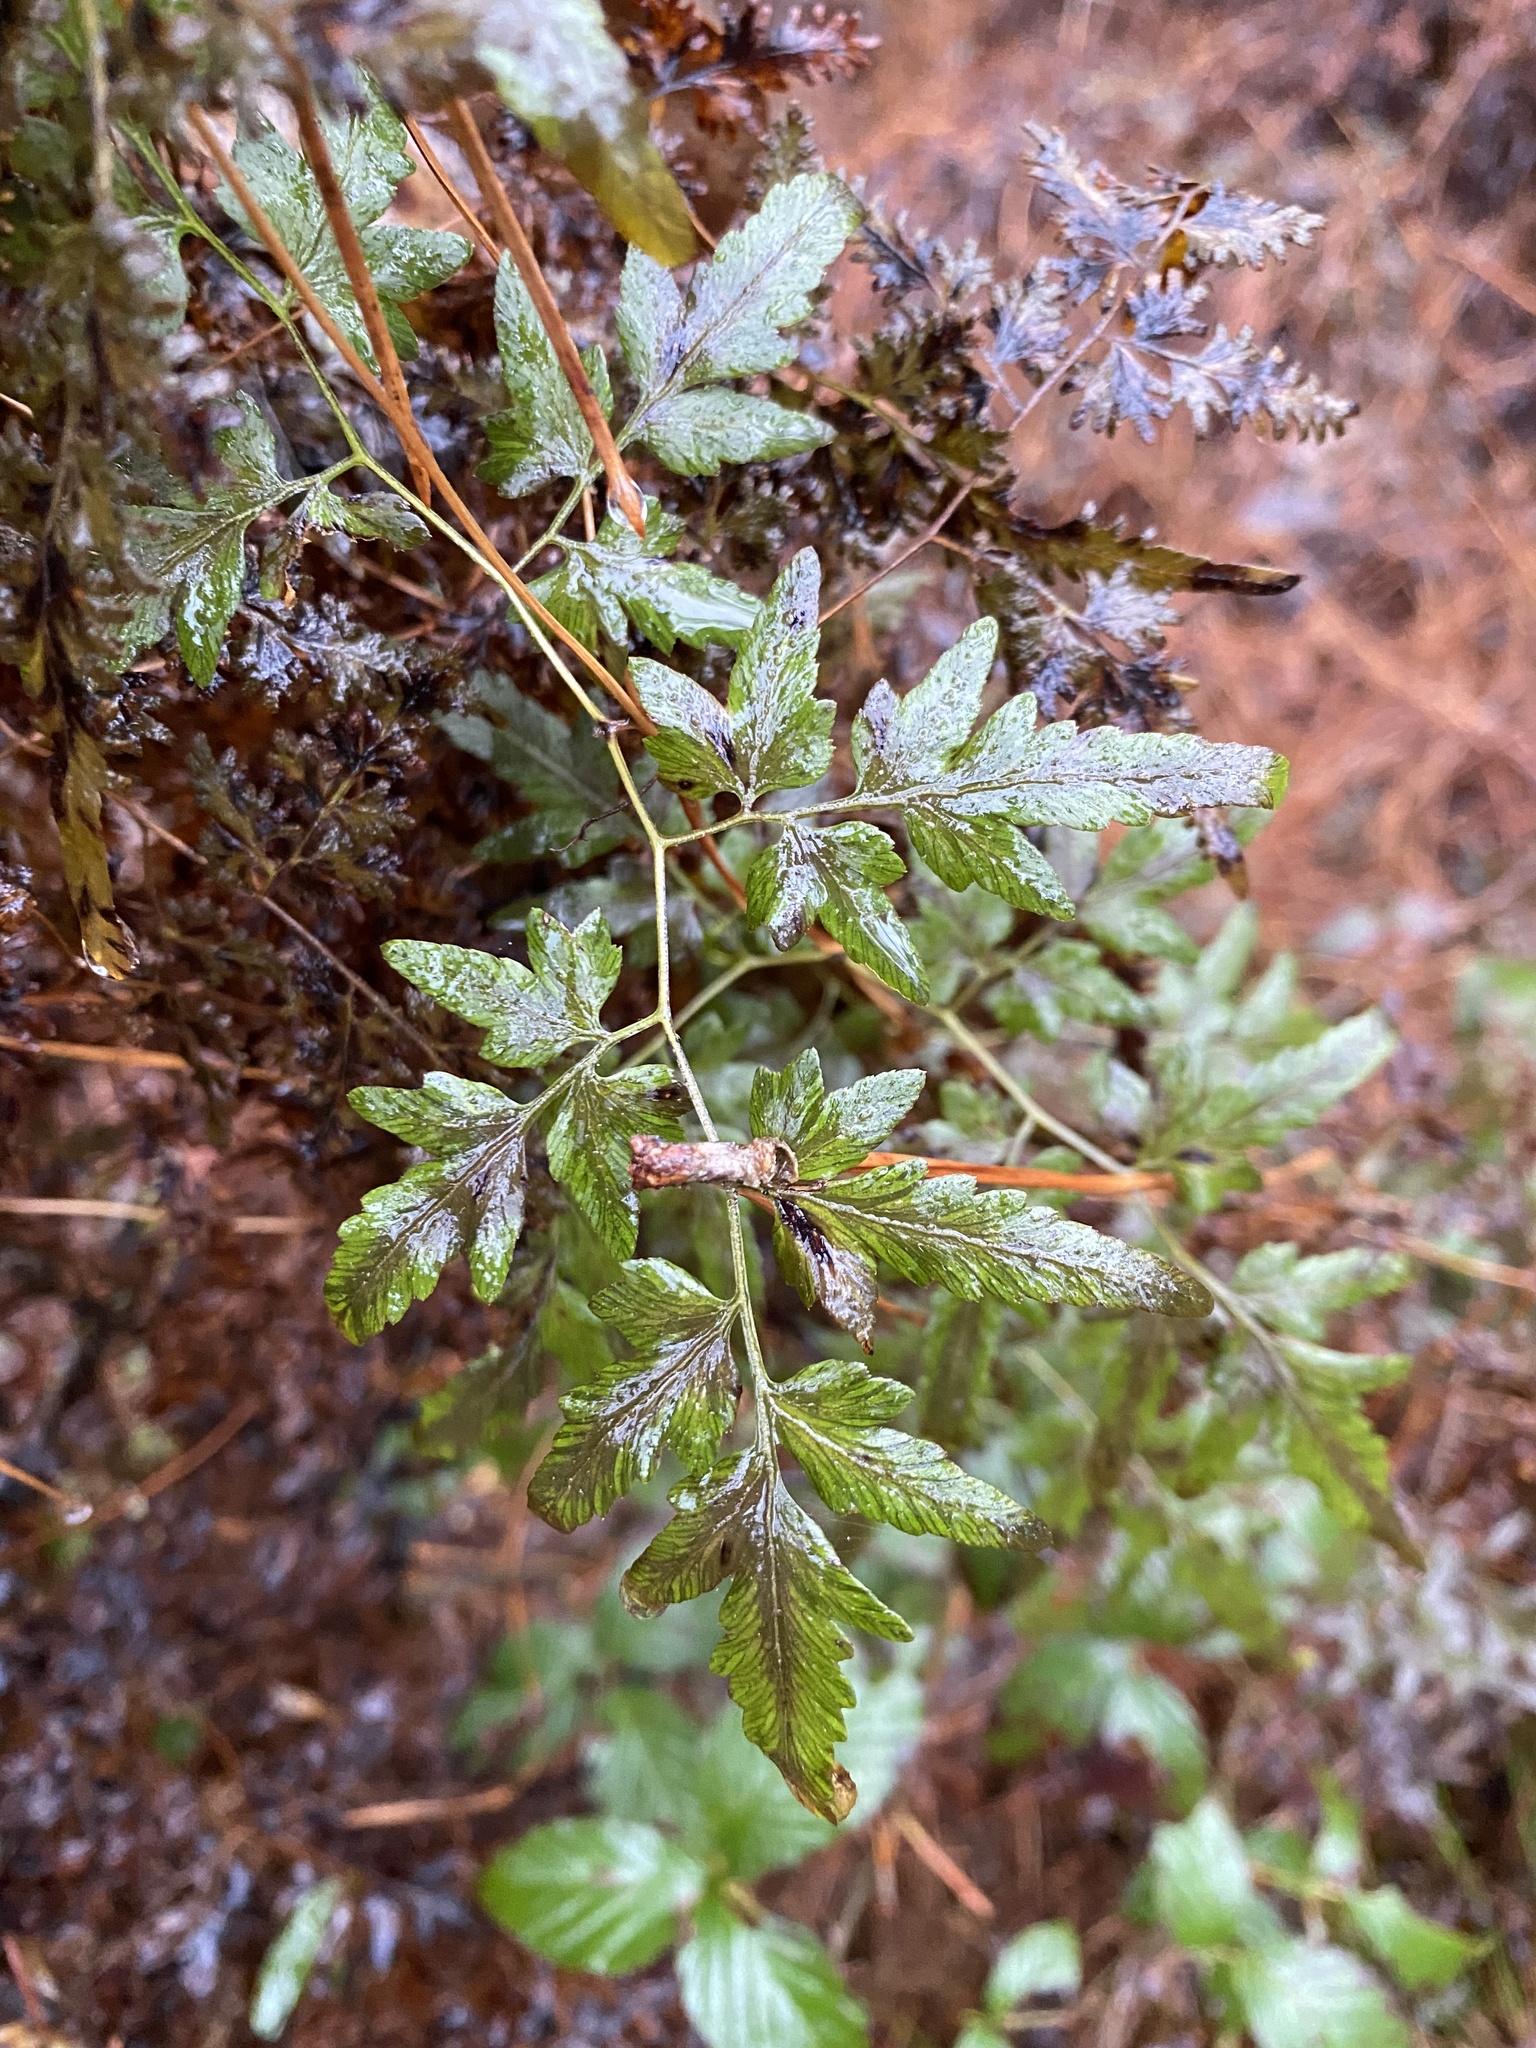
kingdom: Plantae
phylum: Tracheophyta
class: Polypodiopsida
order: Schizaeales
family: Lygodiaceae
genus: Lygodium
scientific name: Lygodium japonicum
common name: Japanese climbing fern
